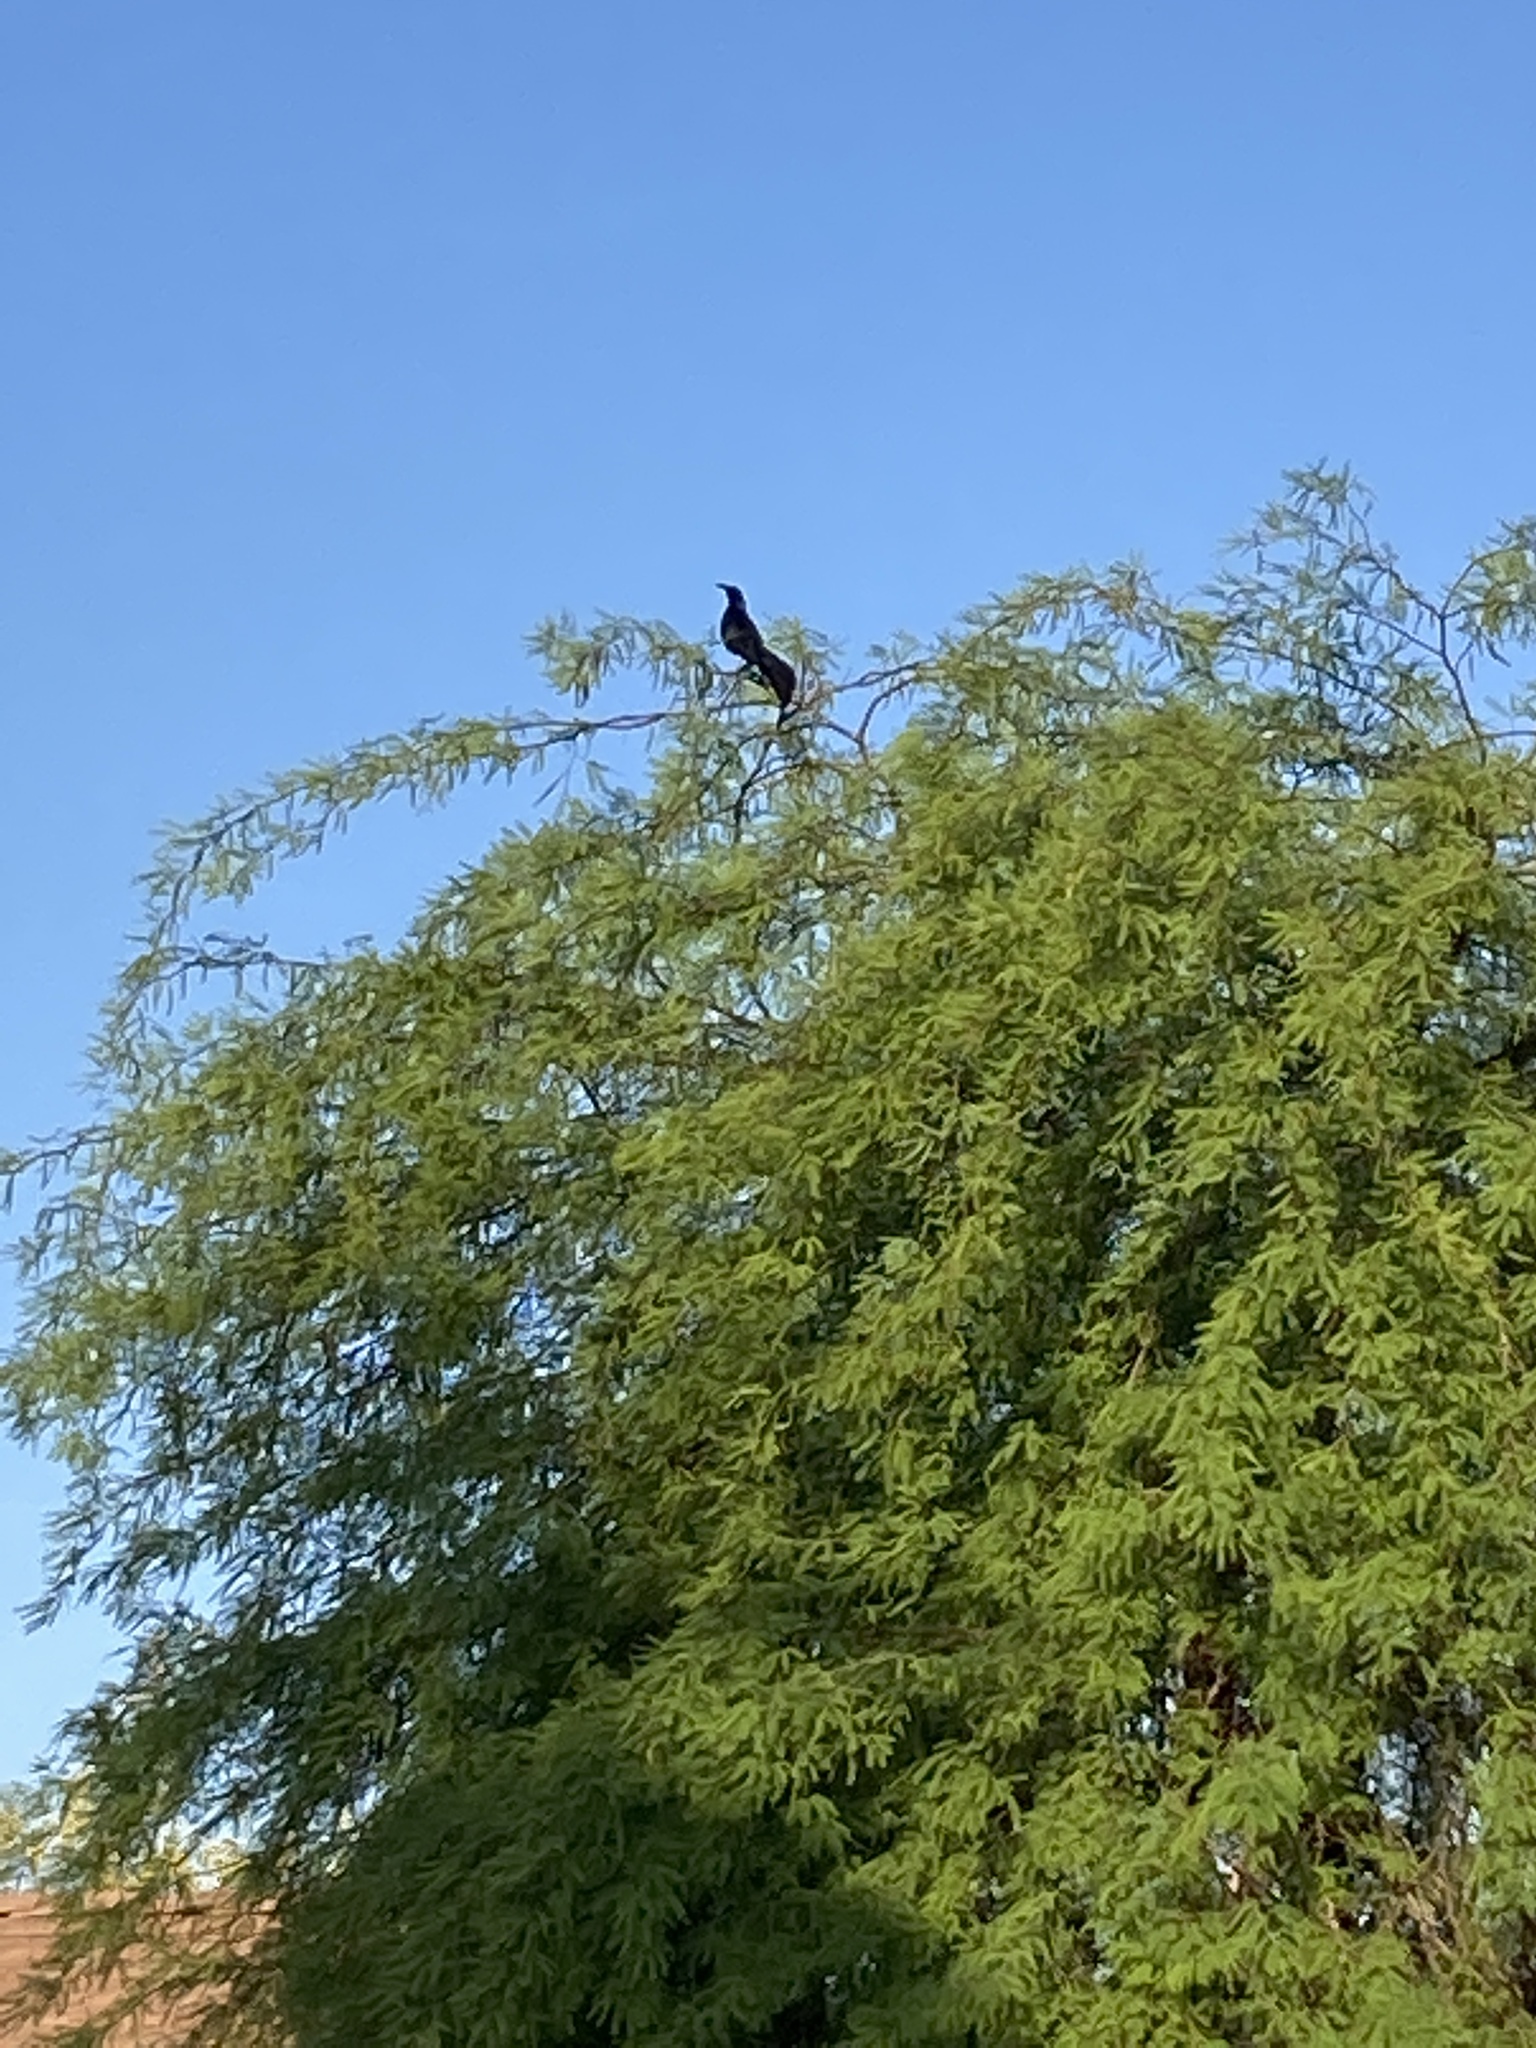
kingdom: Animalia
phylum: Chordata
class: Aves
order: Passeriformes
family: Icteridae
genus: Quiscalus
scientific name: Quiscalus mexicanus
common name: Great-tailed grackle
